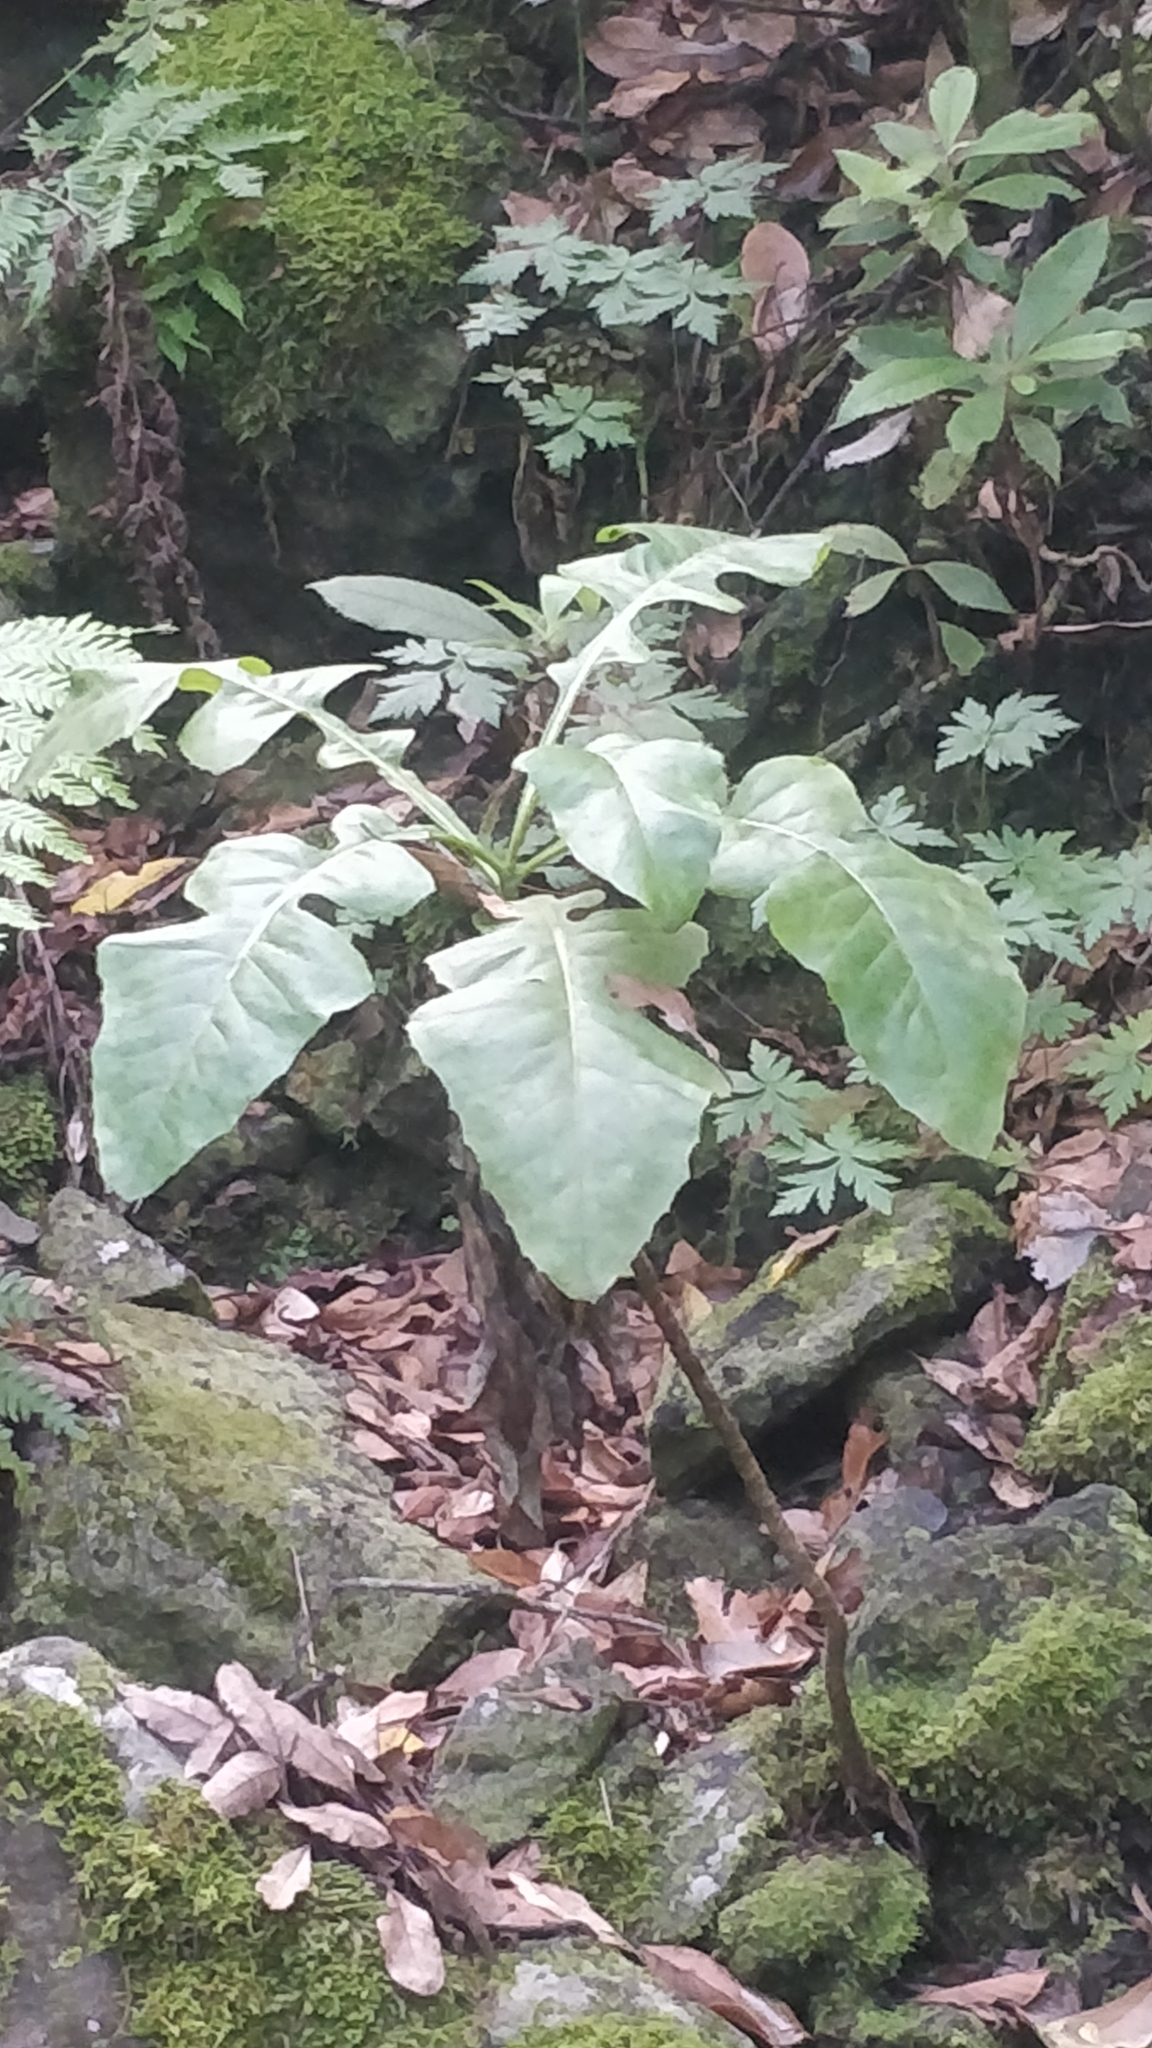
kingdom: Plantae
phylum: Tracheophyta
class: Magnoliopsida
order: Asterales
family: Asteraceae
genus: Sonchus
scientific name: Sonchus fruticosus
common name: Shrubby sow-thistle
